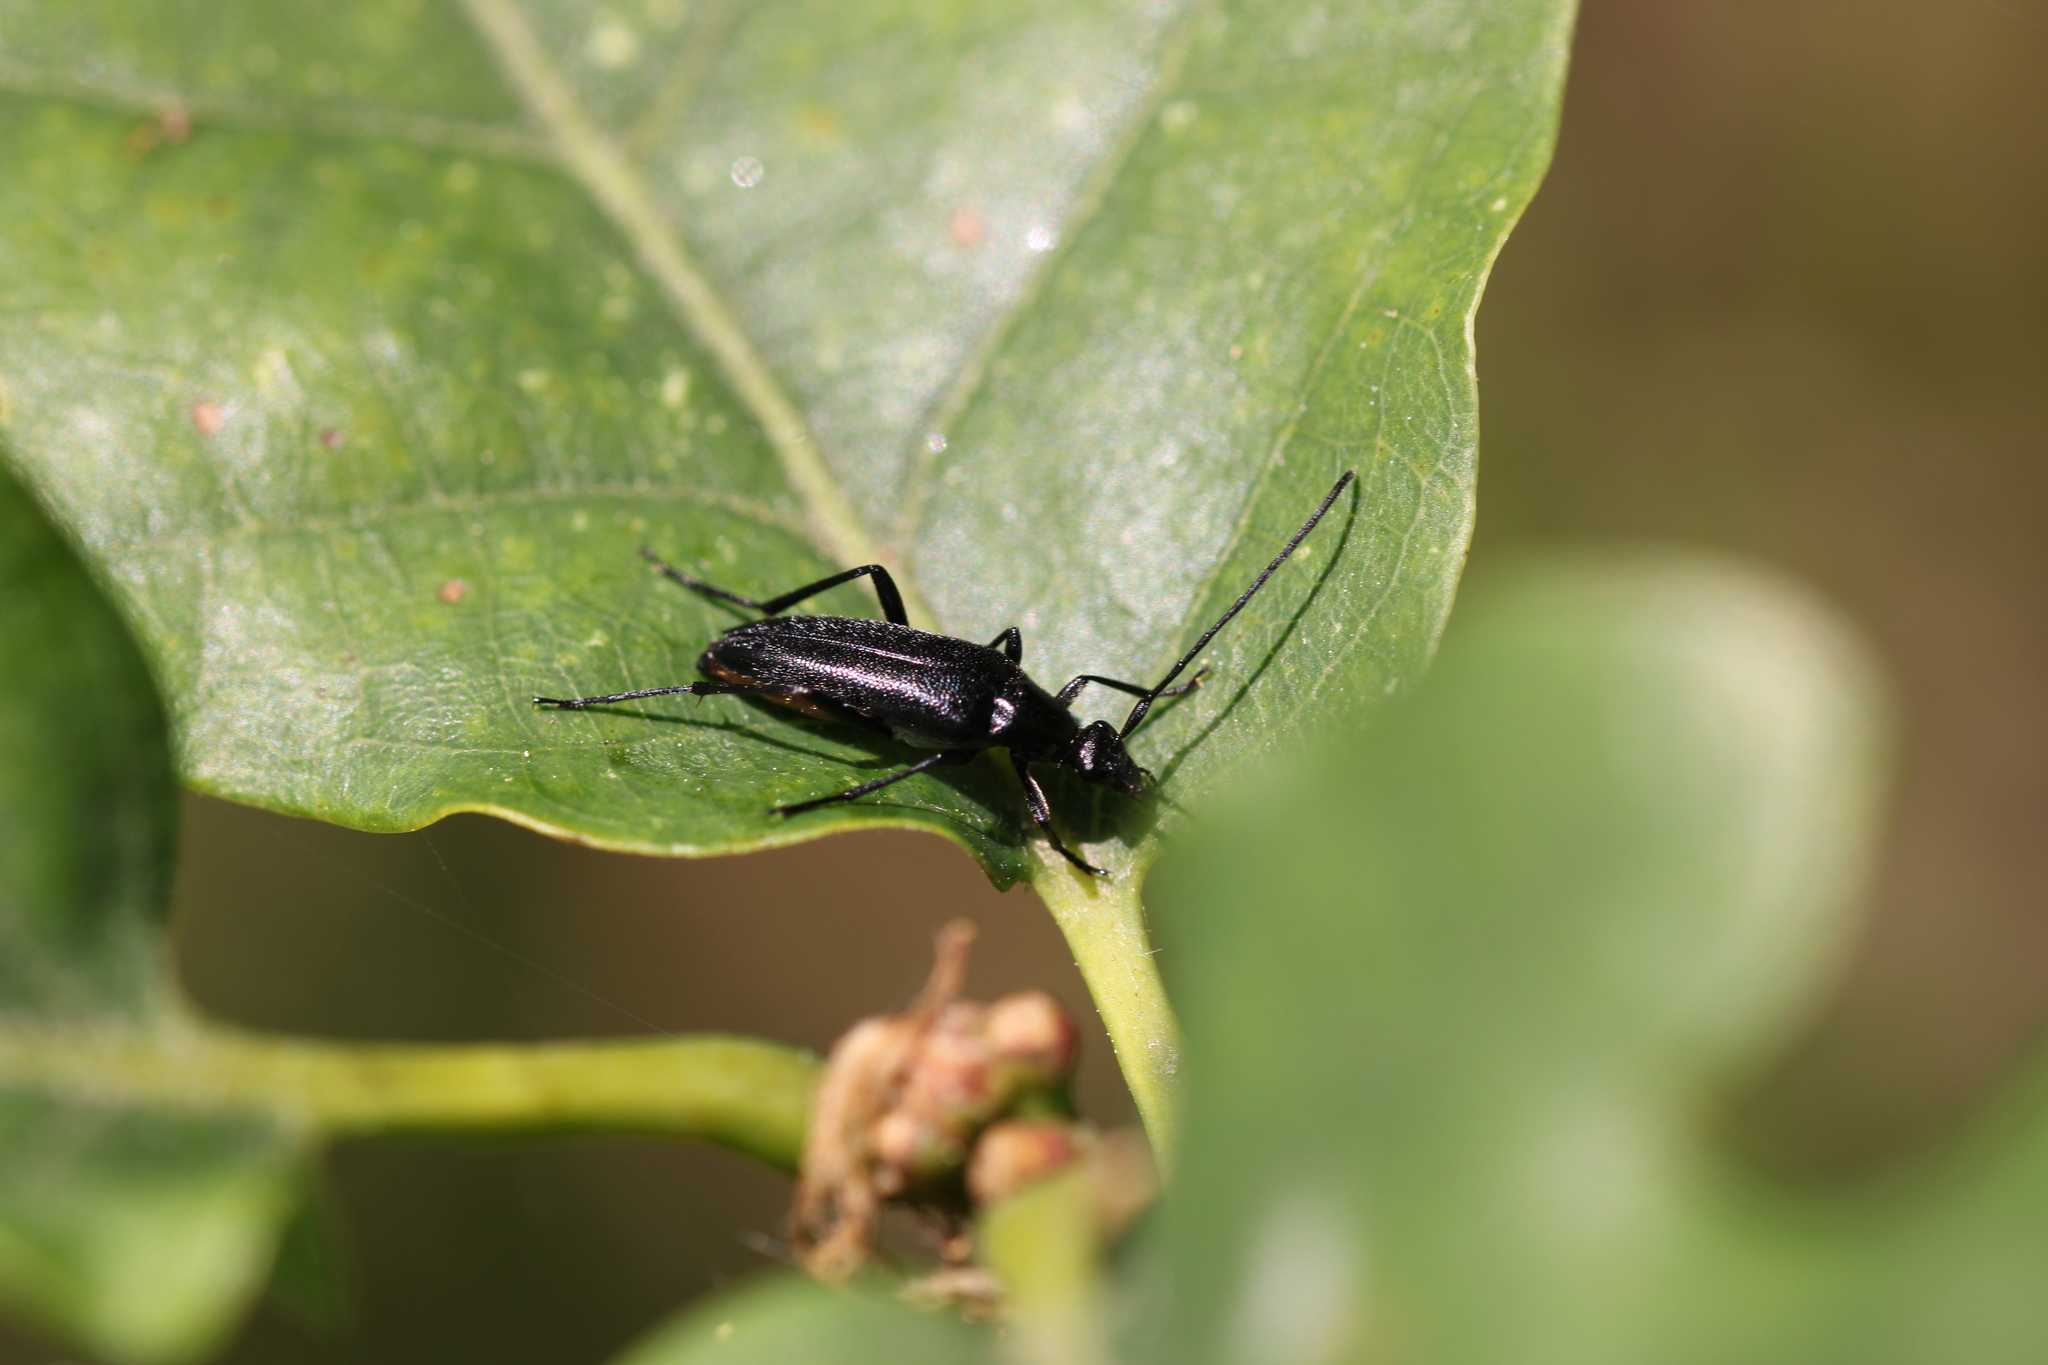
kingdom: Animalia
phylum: Arthropoda
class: Insecta
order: Coleoptera
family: Cerambycidae
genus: Stenurella
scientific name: Stenurella nigra
